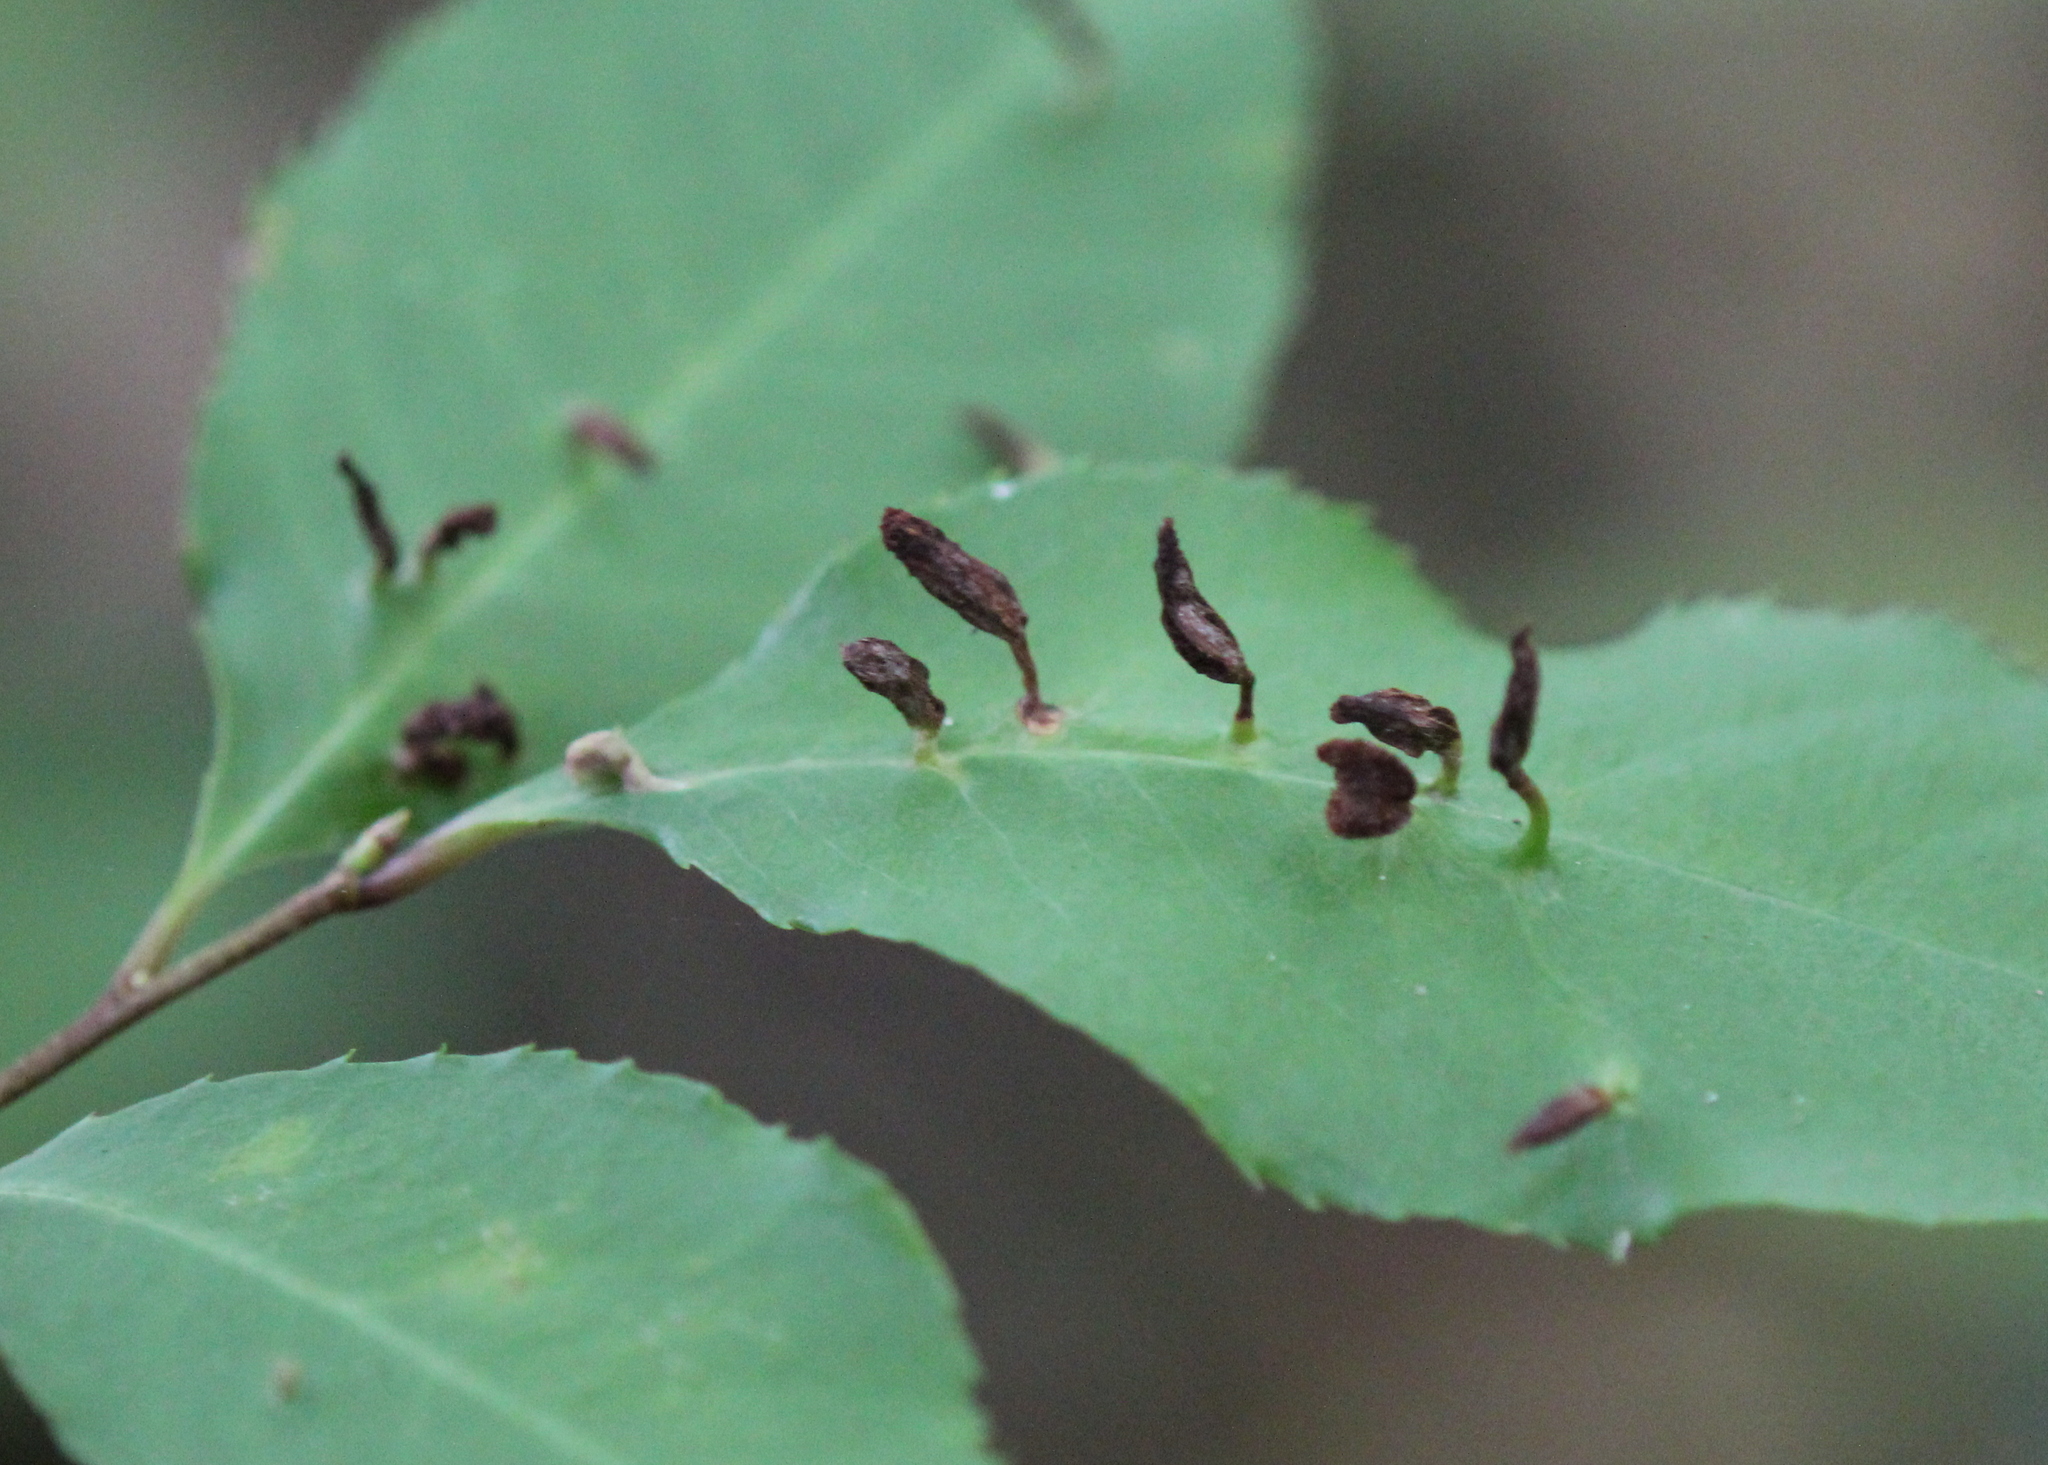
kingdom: Animalia
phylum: Arthropoda
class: Arachnida
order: Trombidiformes
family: Eriophyidae
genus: Eriophyes
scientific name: Eriophyes
